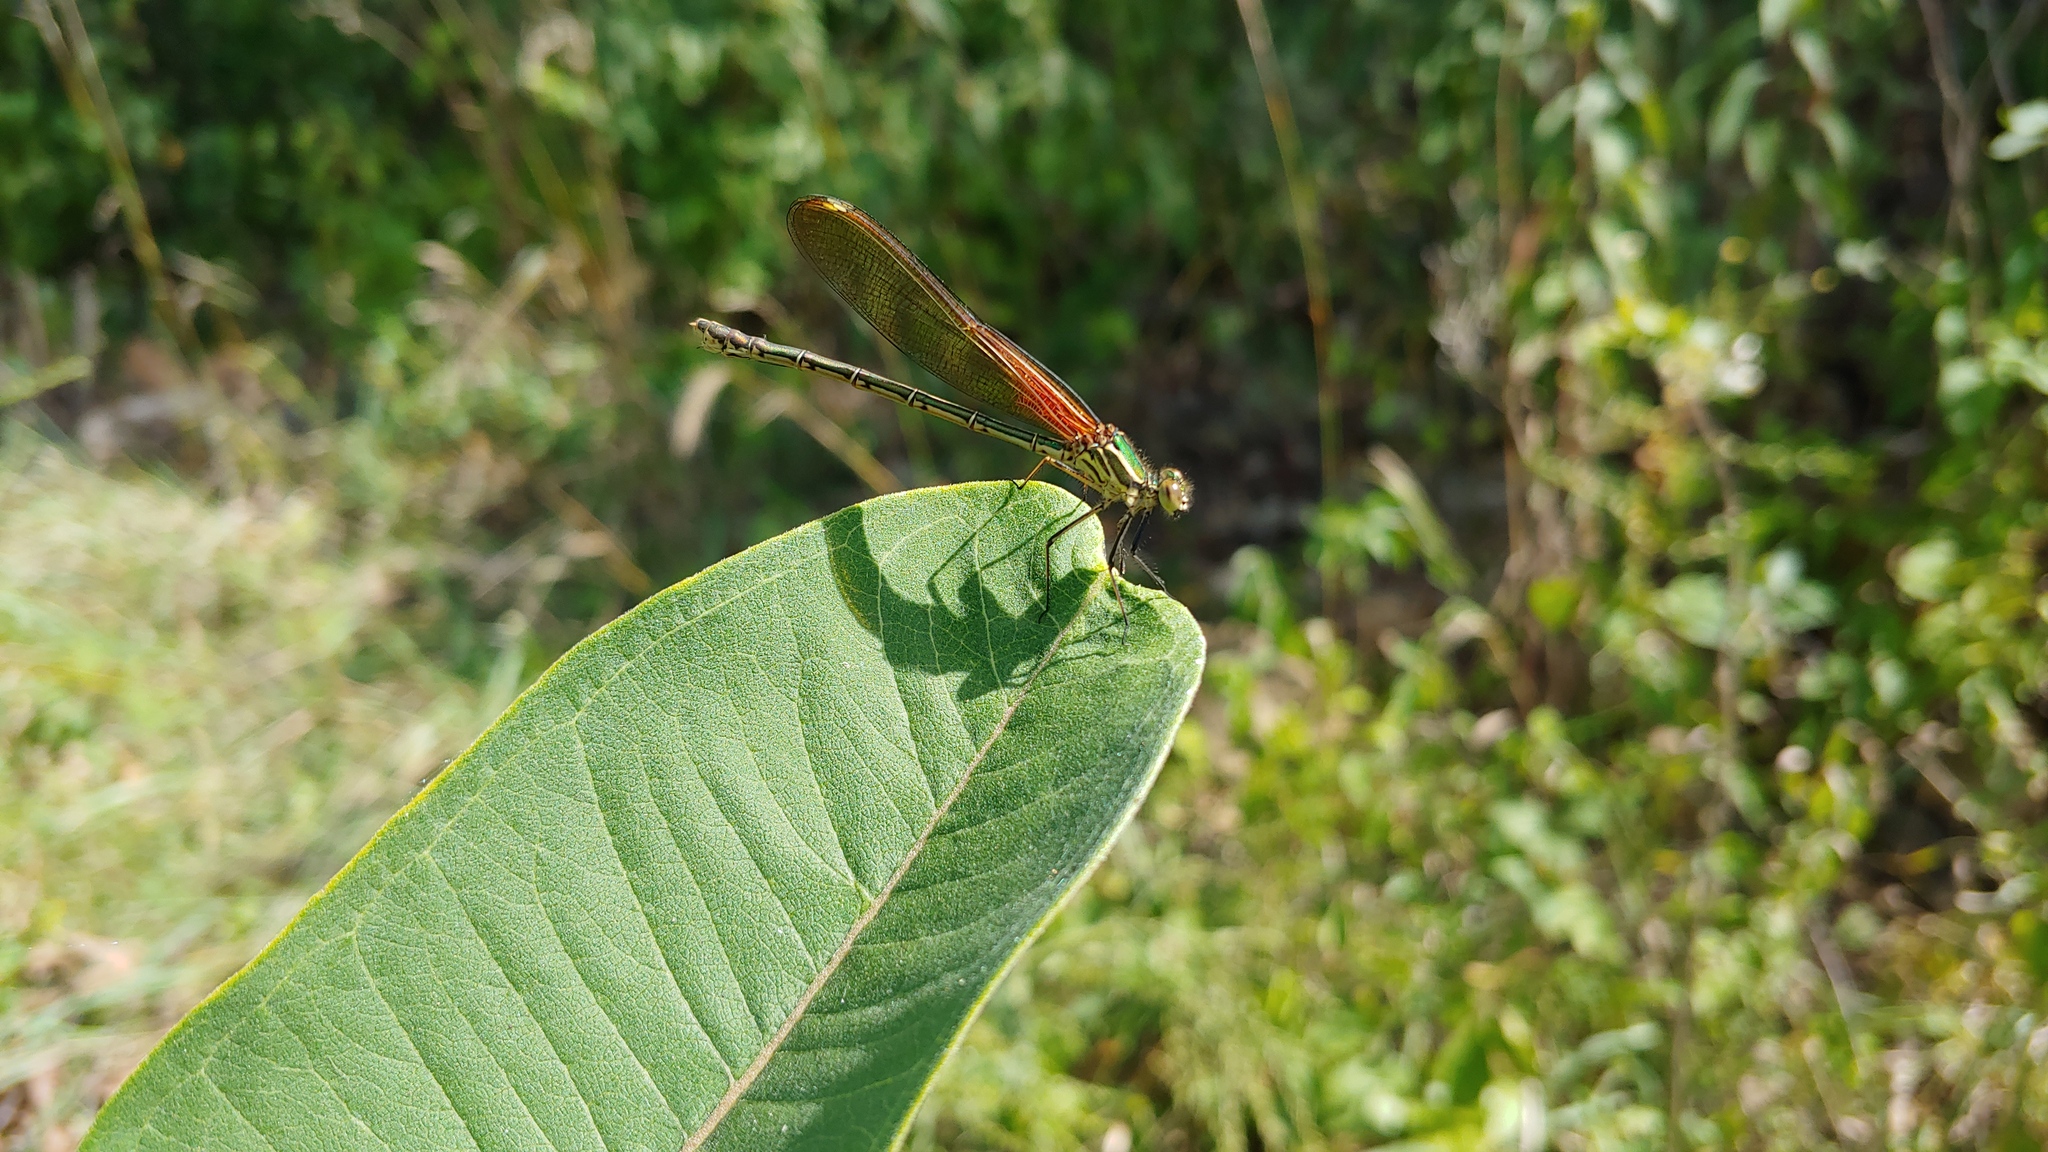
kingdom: Animalia
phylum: Arthropoda
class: Insecta
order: Odonata
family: Calopterygidae
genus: Hetaerina
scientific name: Hetaerina americana
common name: American rubyspot
